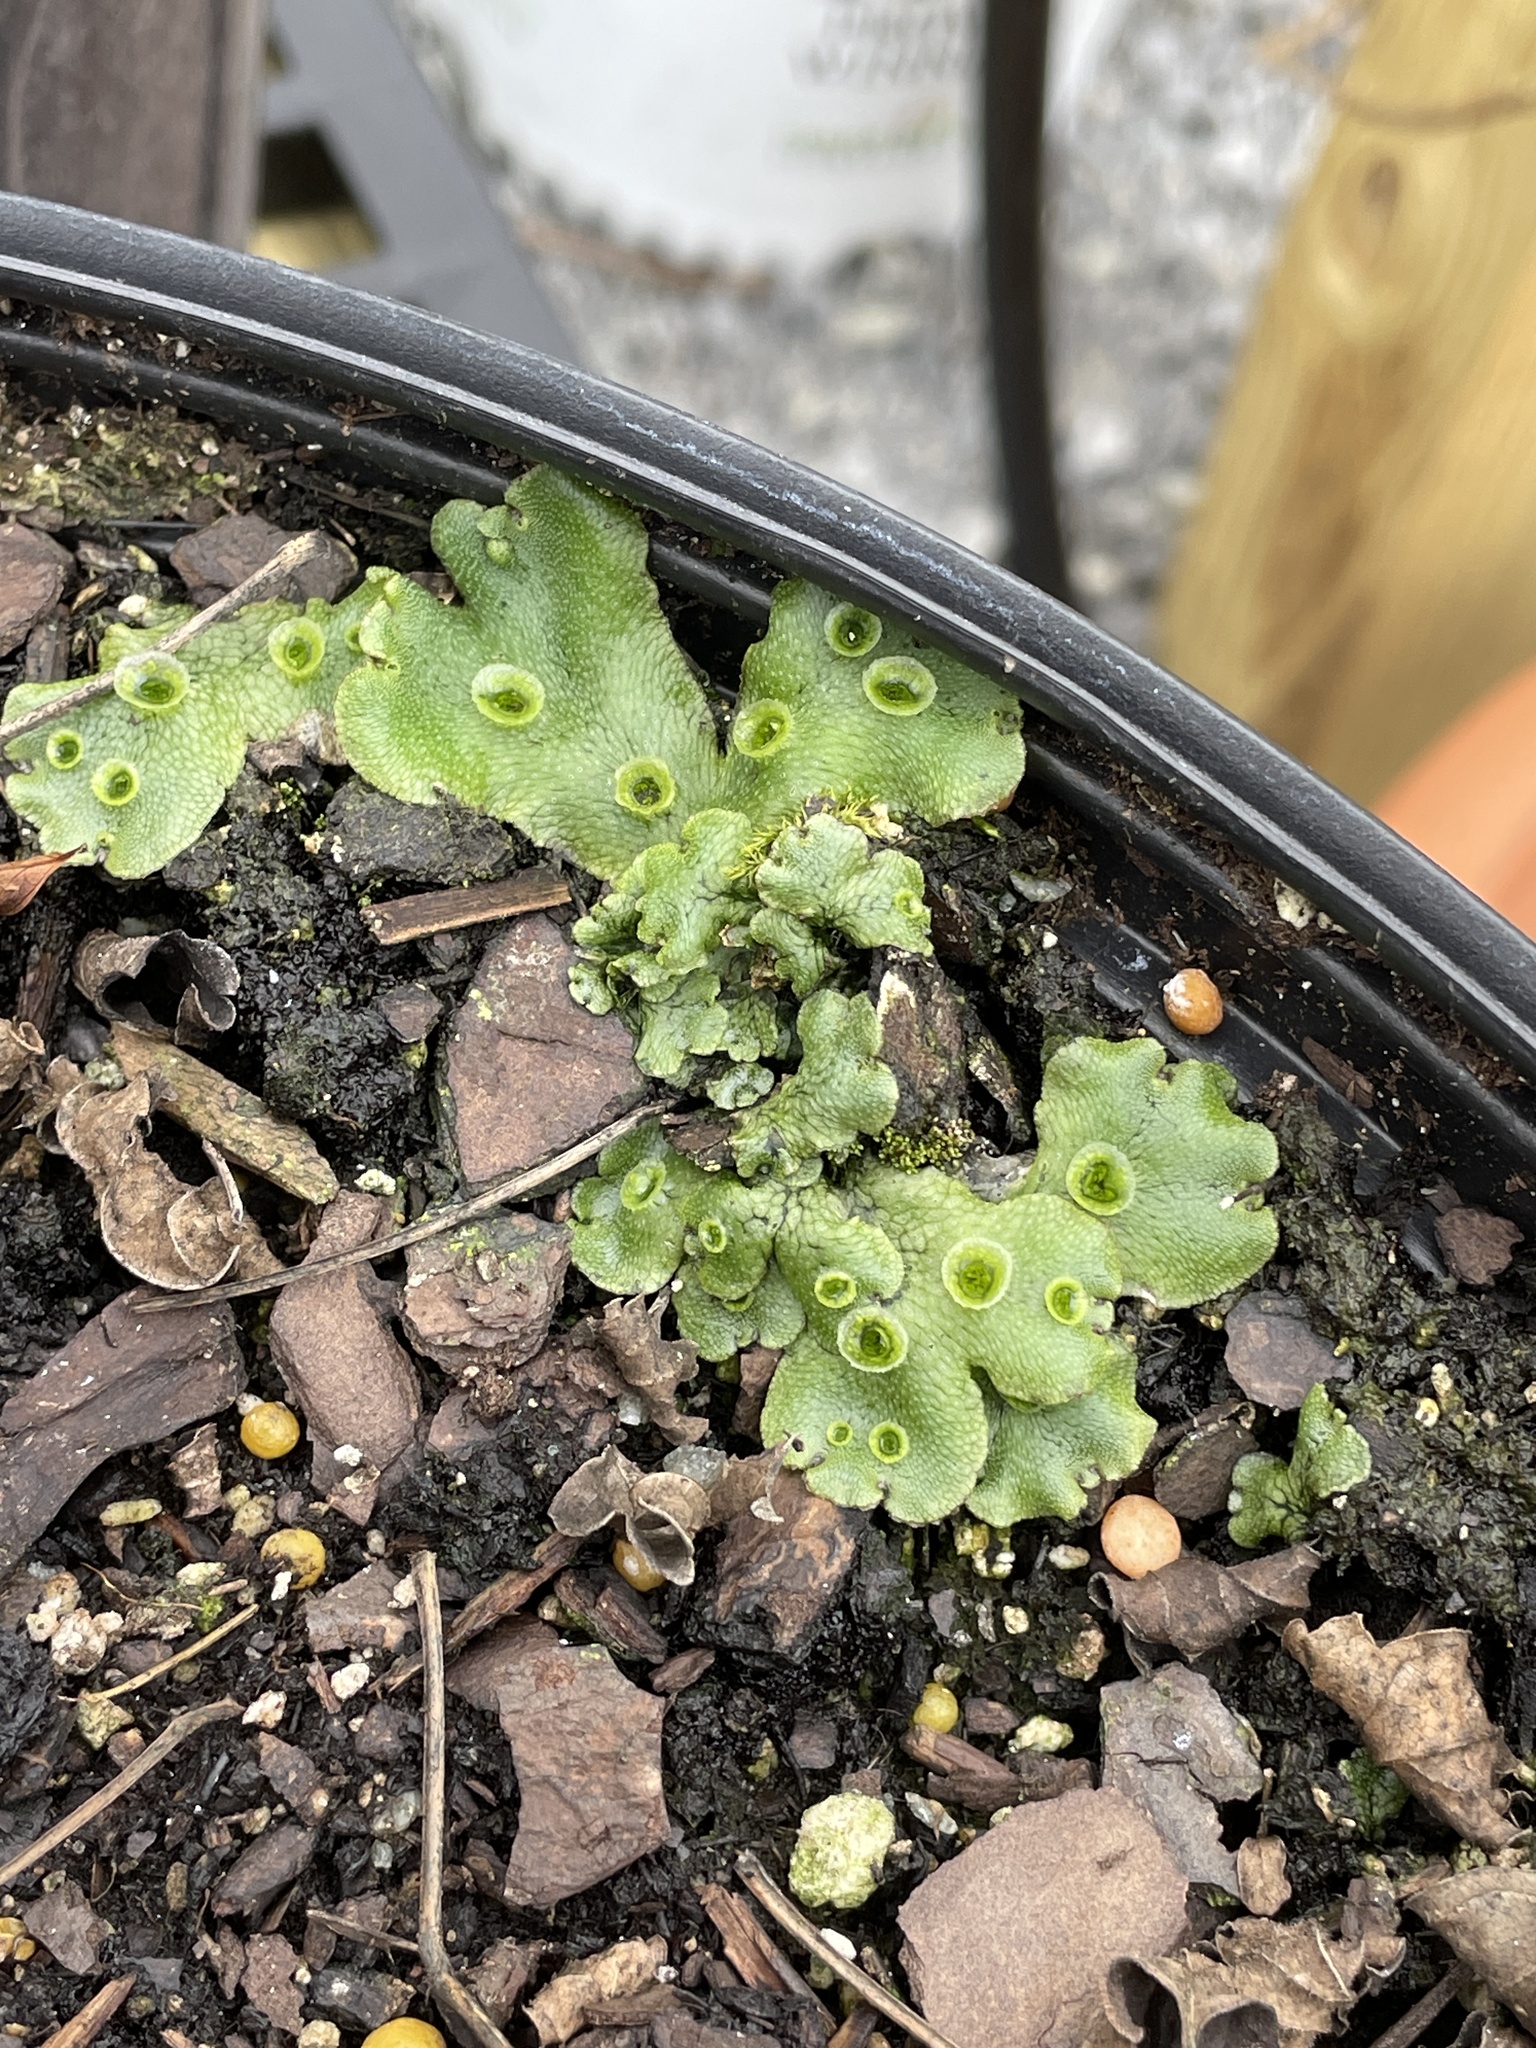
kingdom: Plantae
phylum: Marchantiophyta
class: Marchantiopsida
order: Marchantiales
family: Marchantiaceae
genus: Marchantia
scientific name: Marchantia polymorpha
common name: Common liverwort
